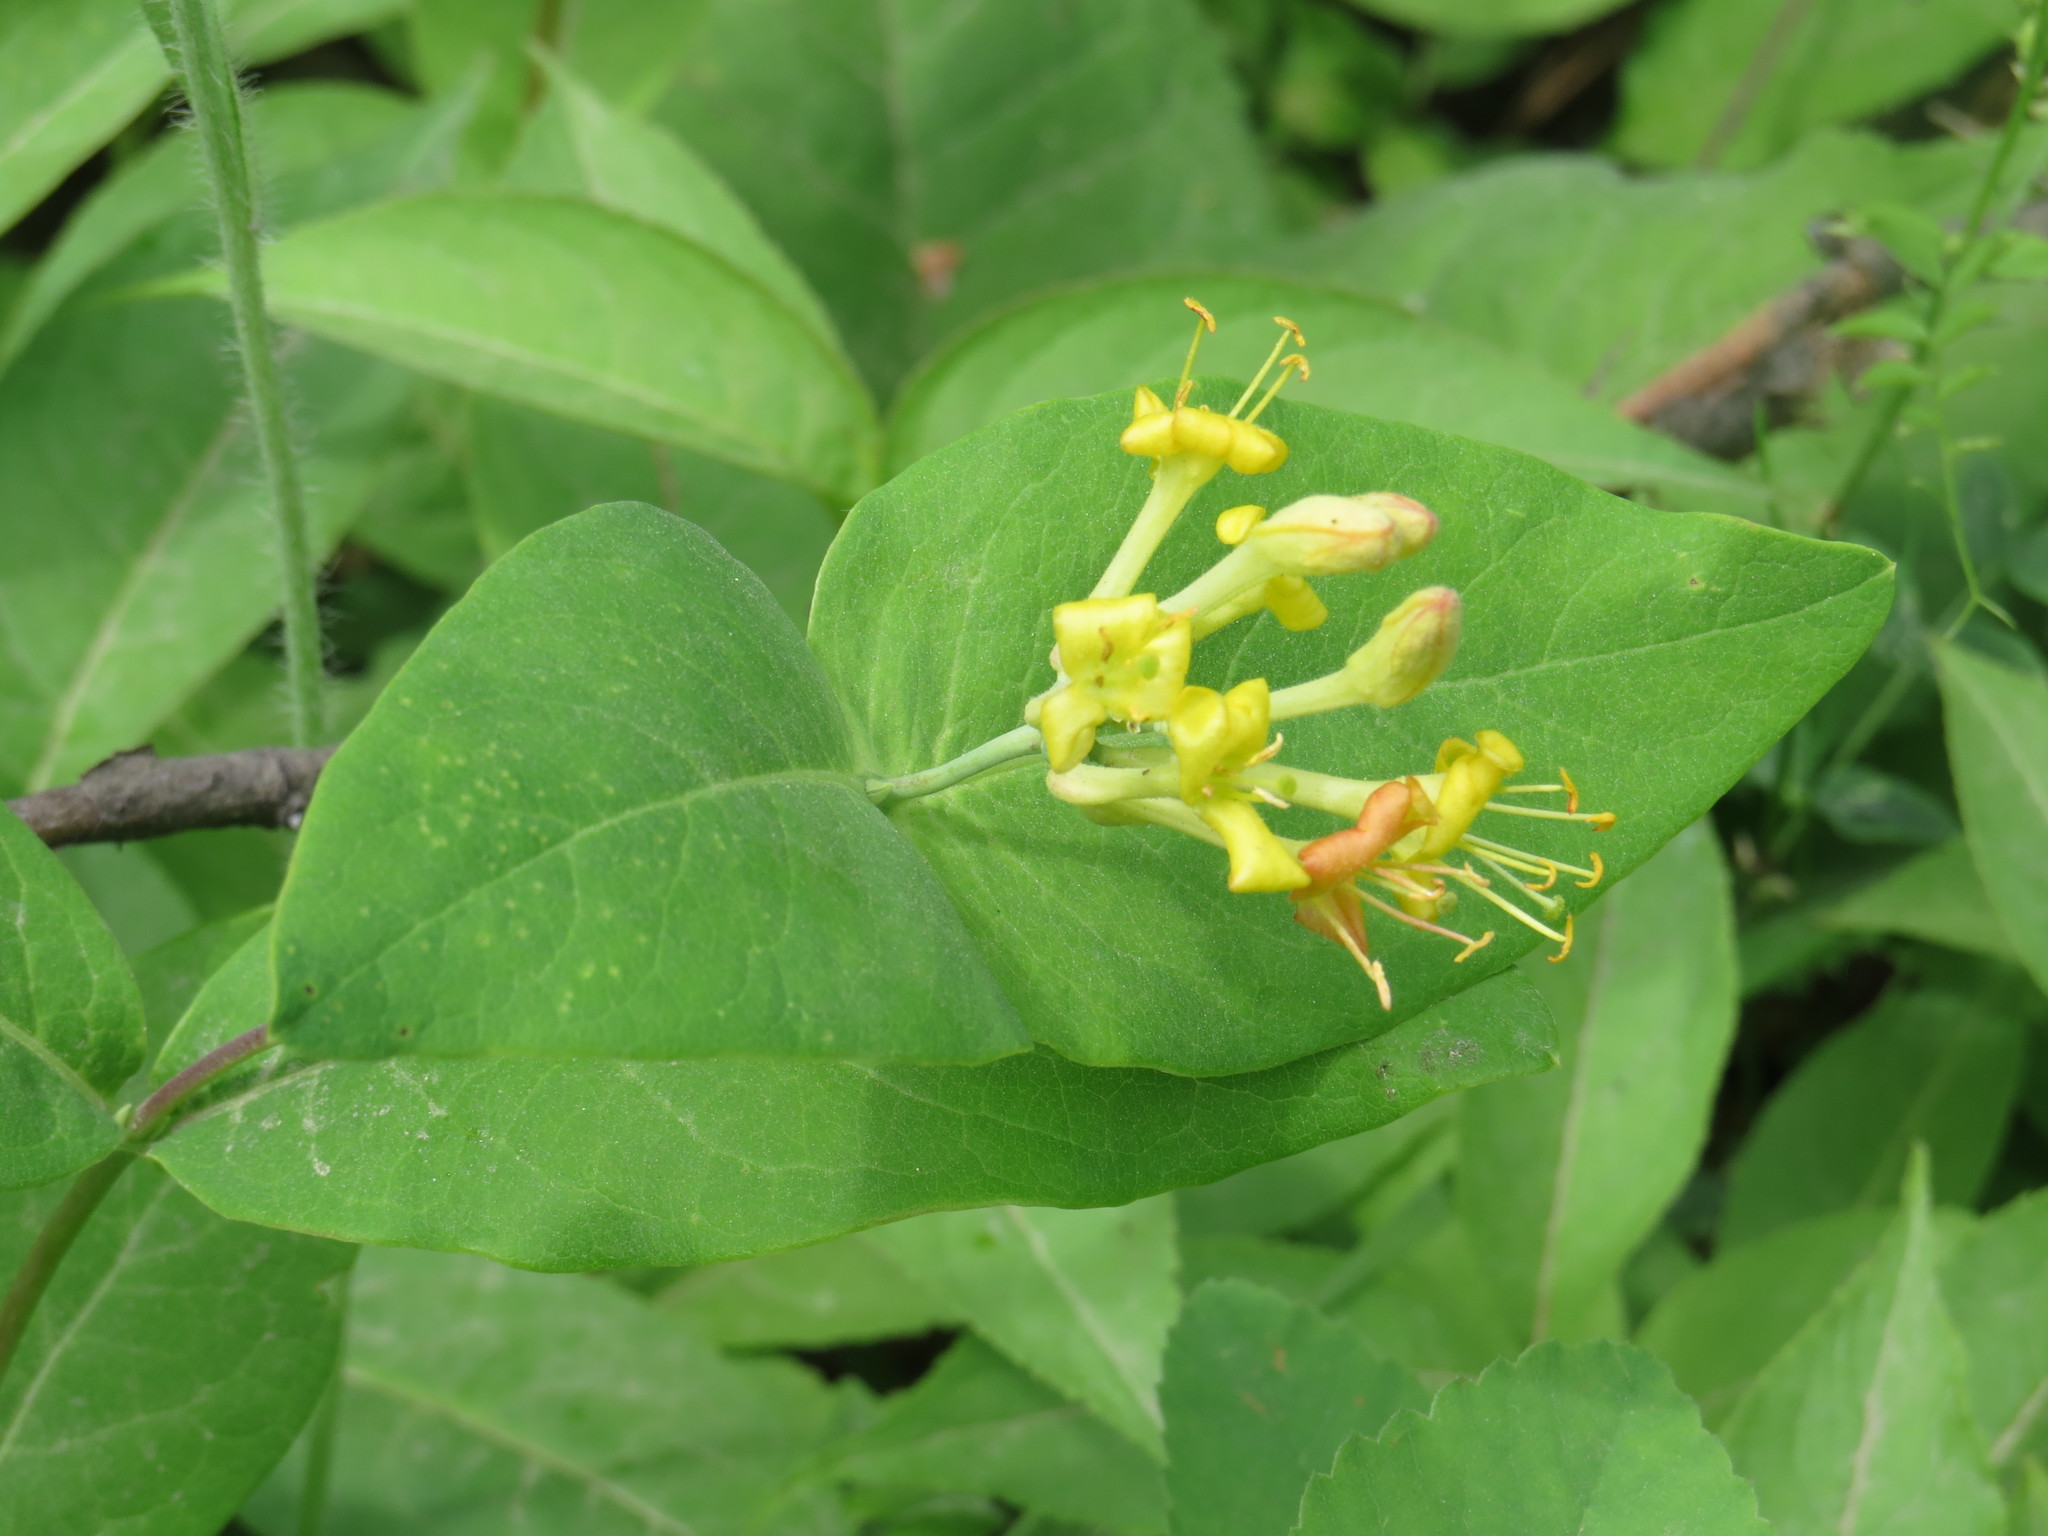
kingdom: Plantae
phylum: Tracheophyta
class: Magnoliopsida
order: Dipsacales
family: Caprifoliaceae
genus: Lonicera
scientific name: Lonicera dioica
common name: Limber honeysuckle
